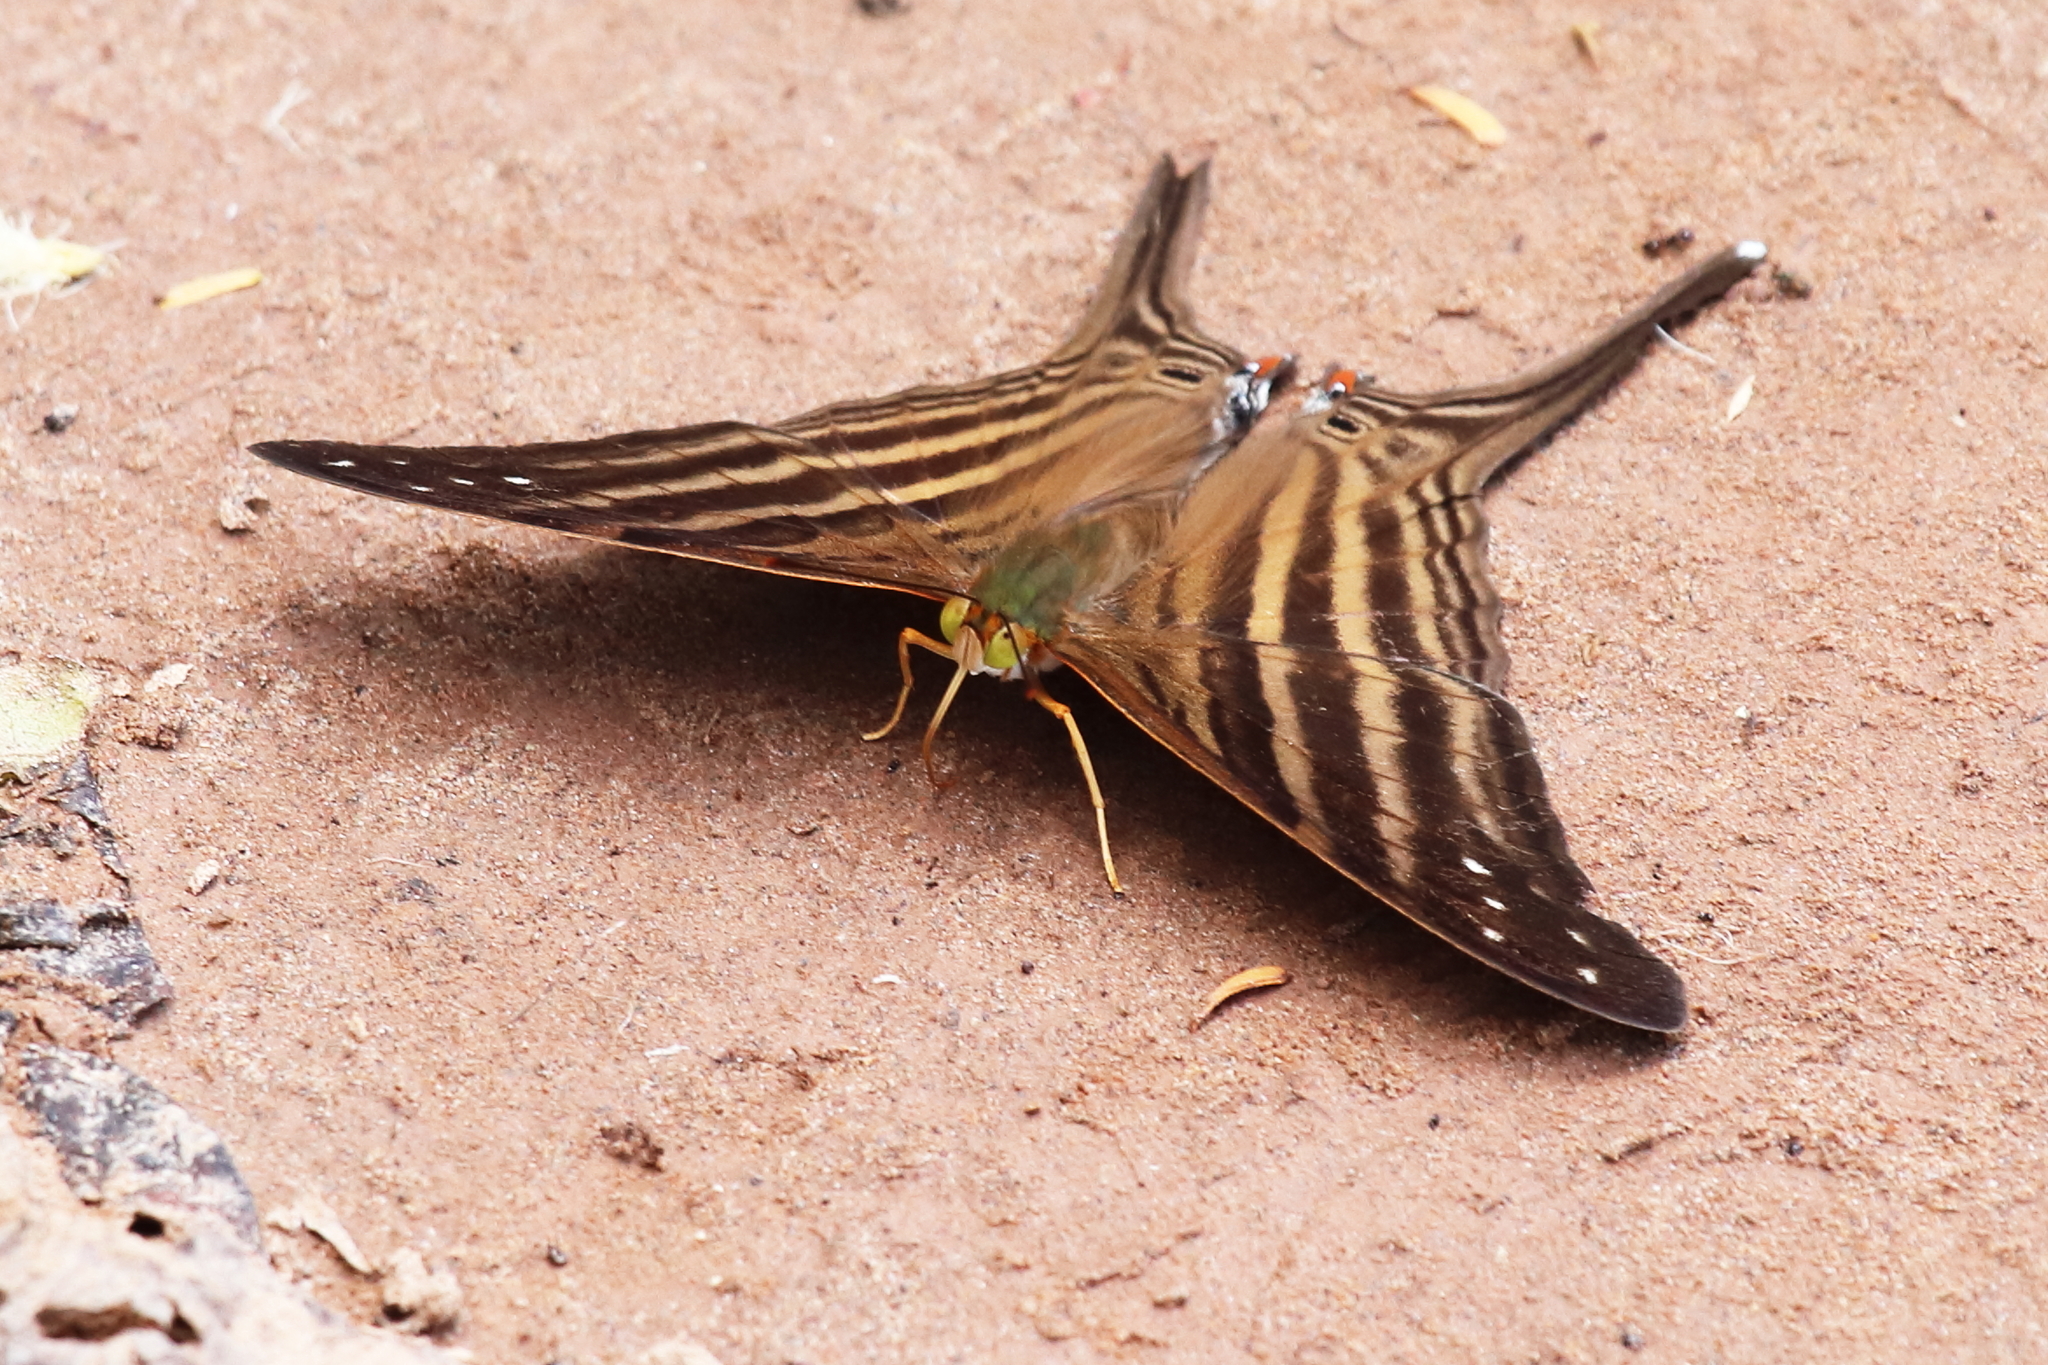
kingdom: Animalia
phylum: Arthropoda
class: Insecta
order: Lepidoptera
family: Nymphalidae
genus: Marpesia
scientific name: Marpesia chiron
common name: Many-banded daggerwing
